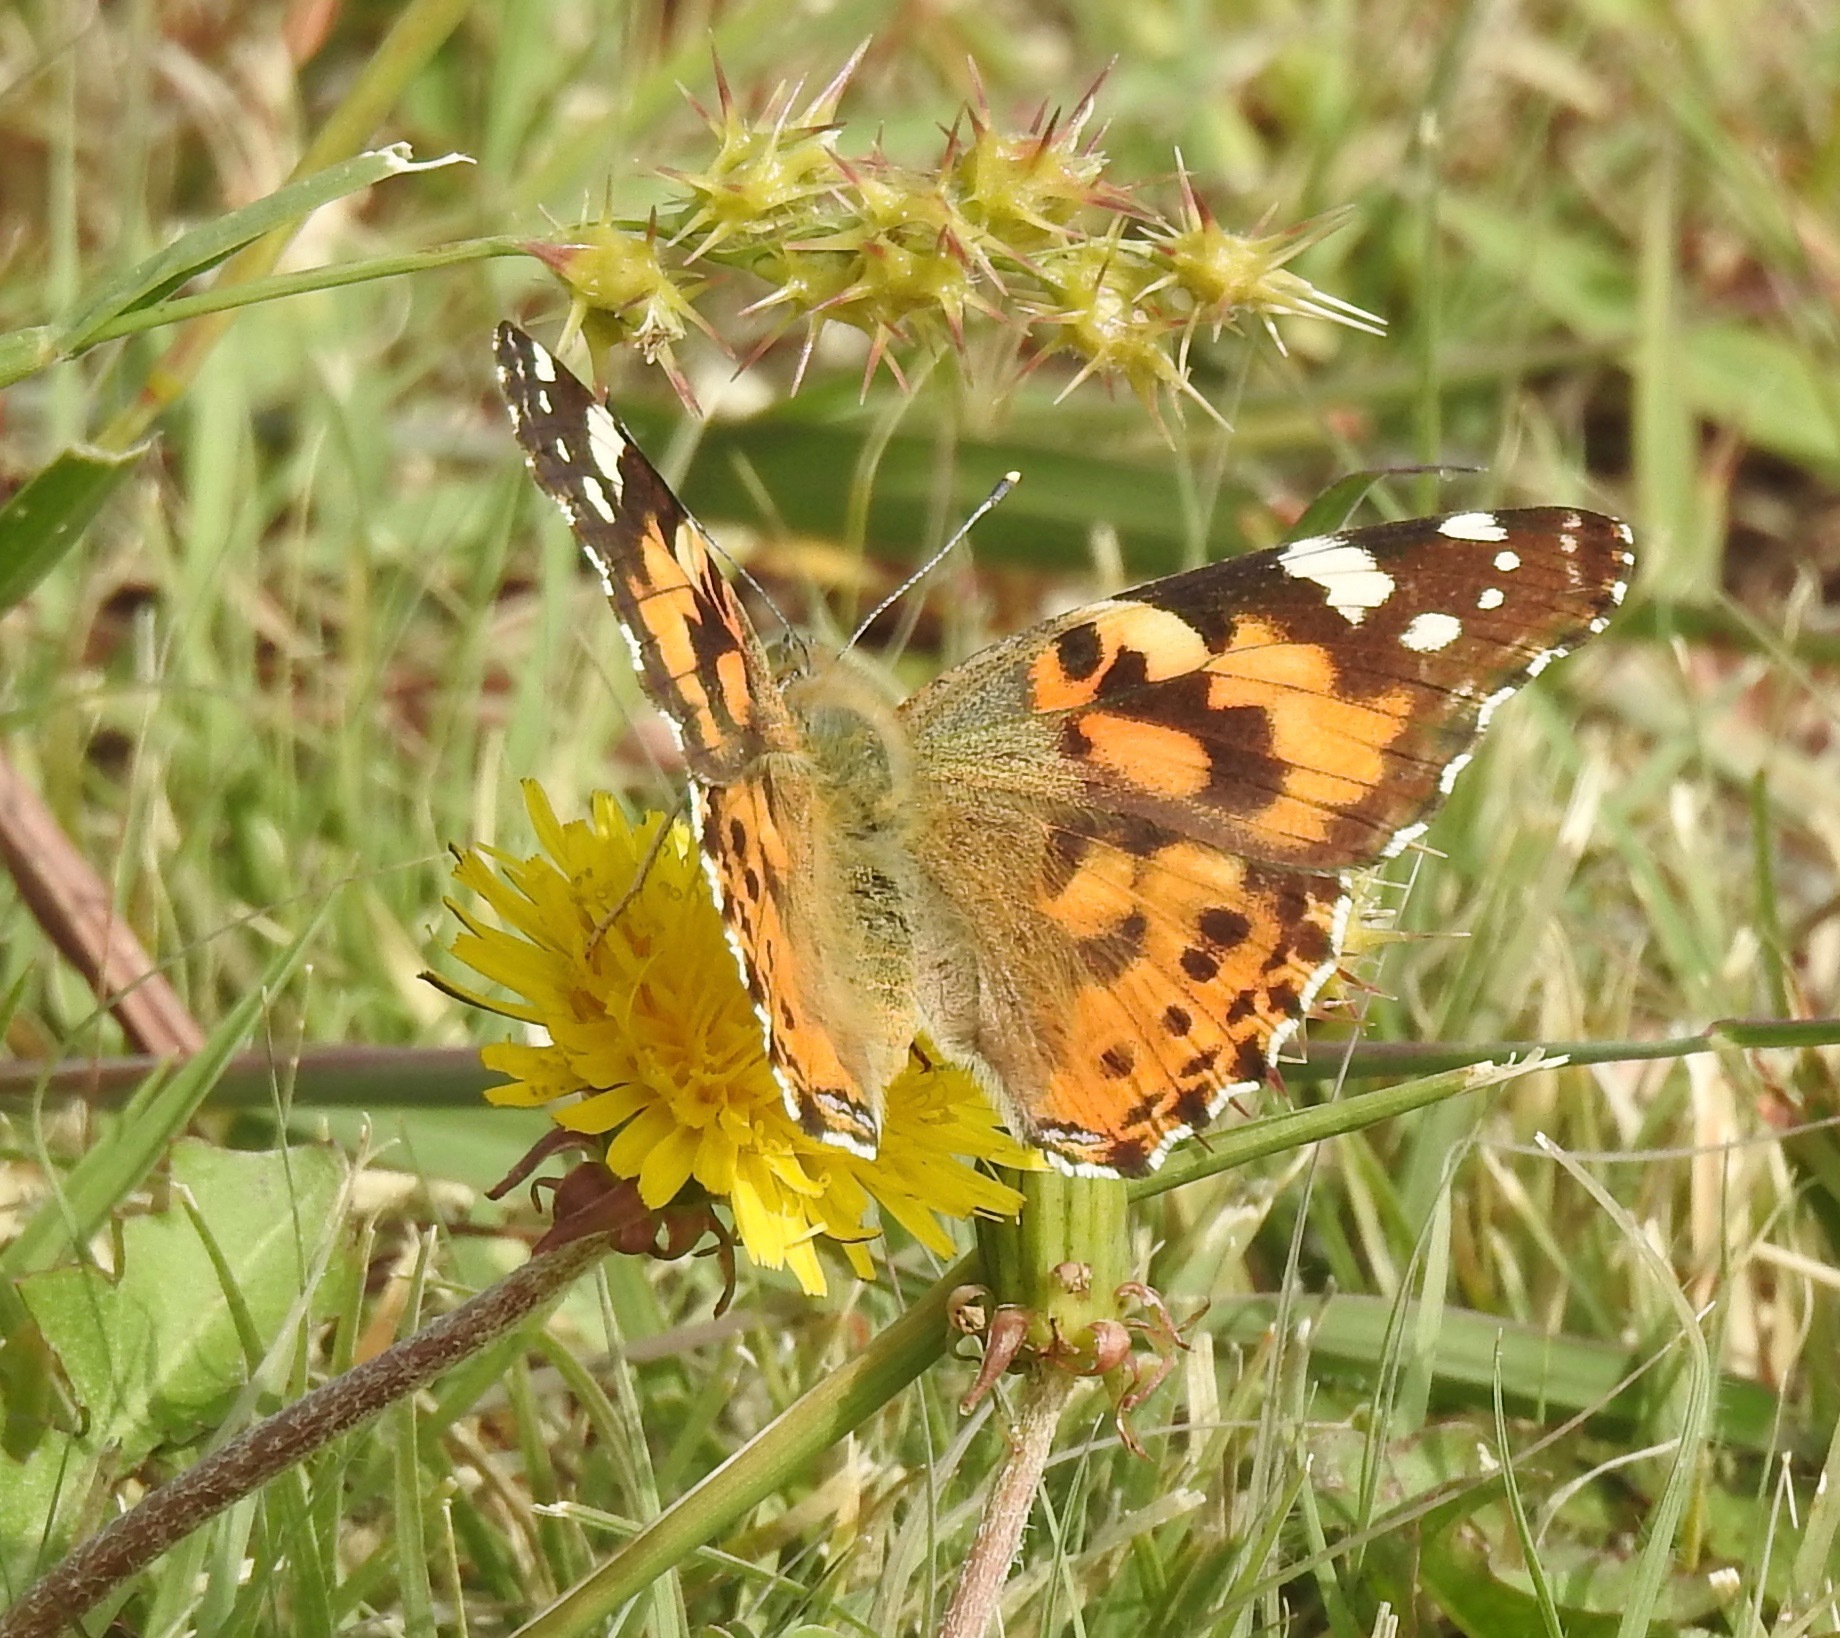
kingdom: Animalia
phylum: Arthropoda
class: Insecta
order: Lepidoptera
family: Nymphalidae
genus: Vanessa
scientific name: Vanessa cardui
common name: Painted lady
